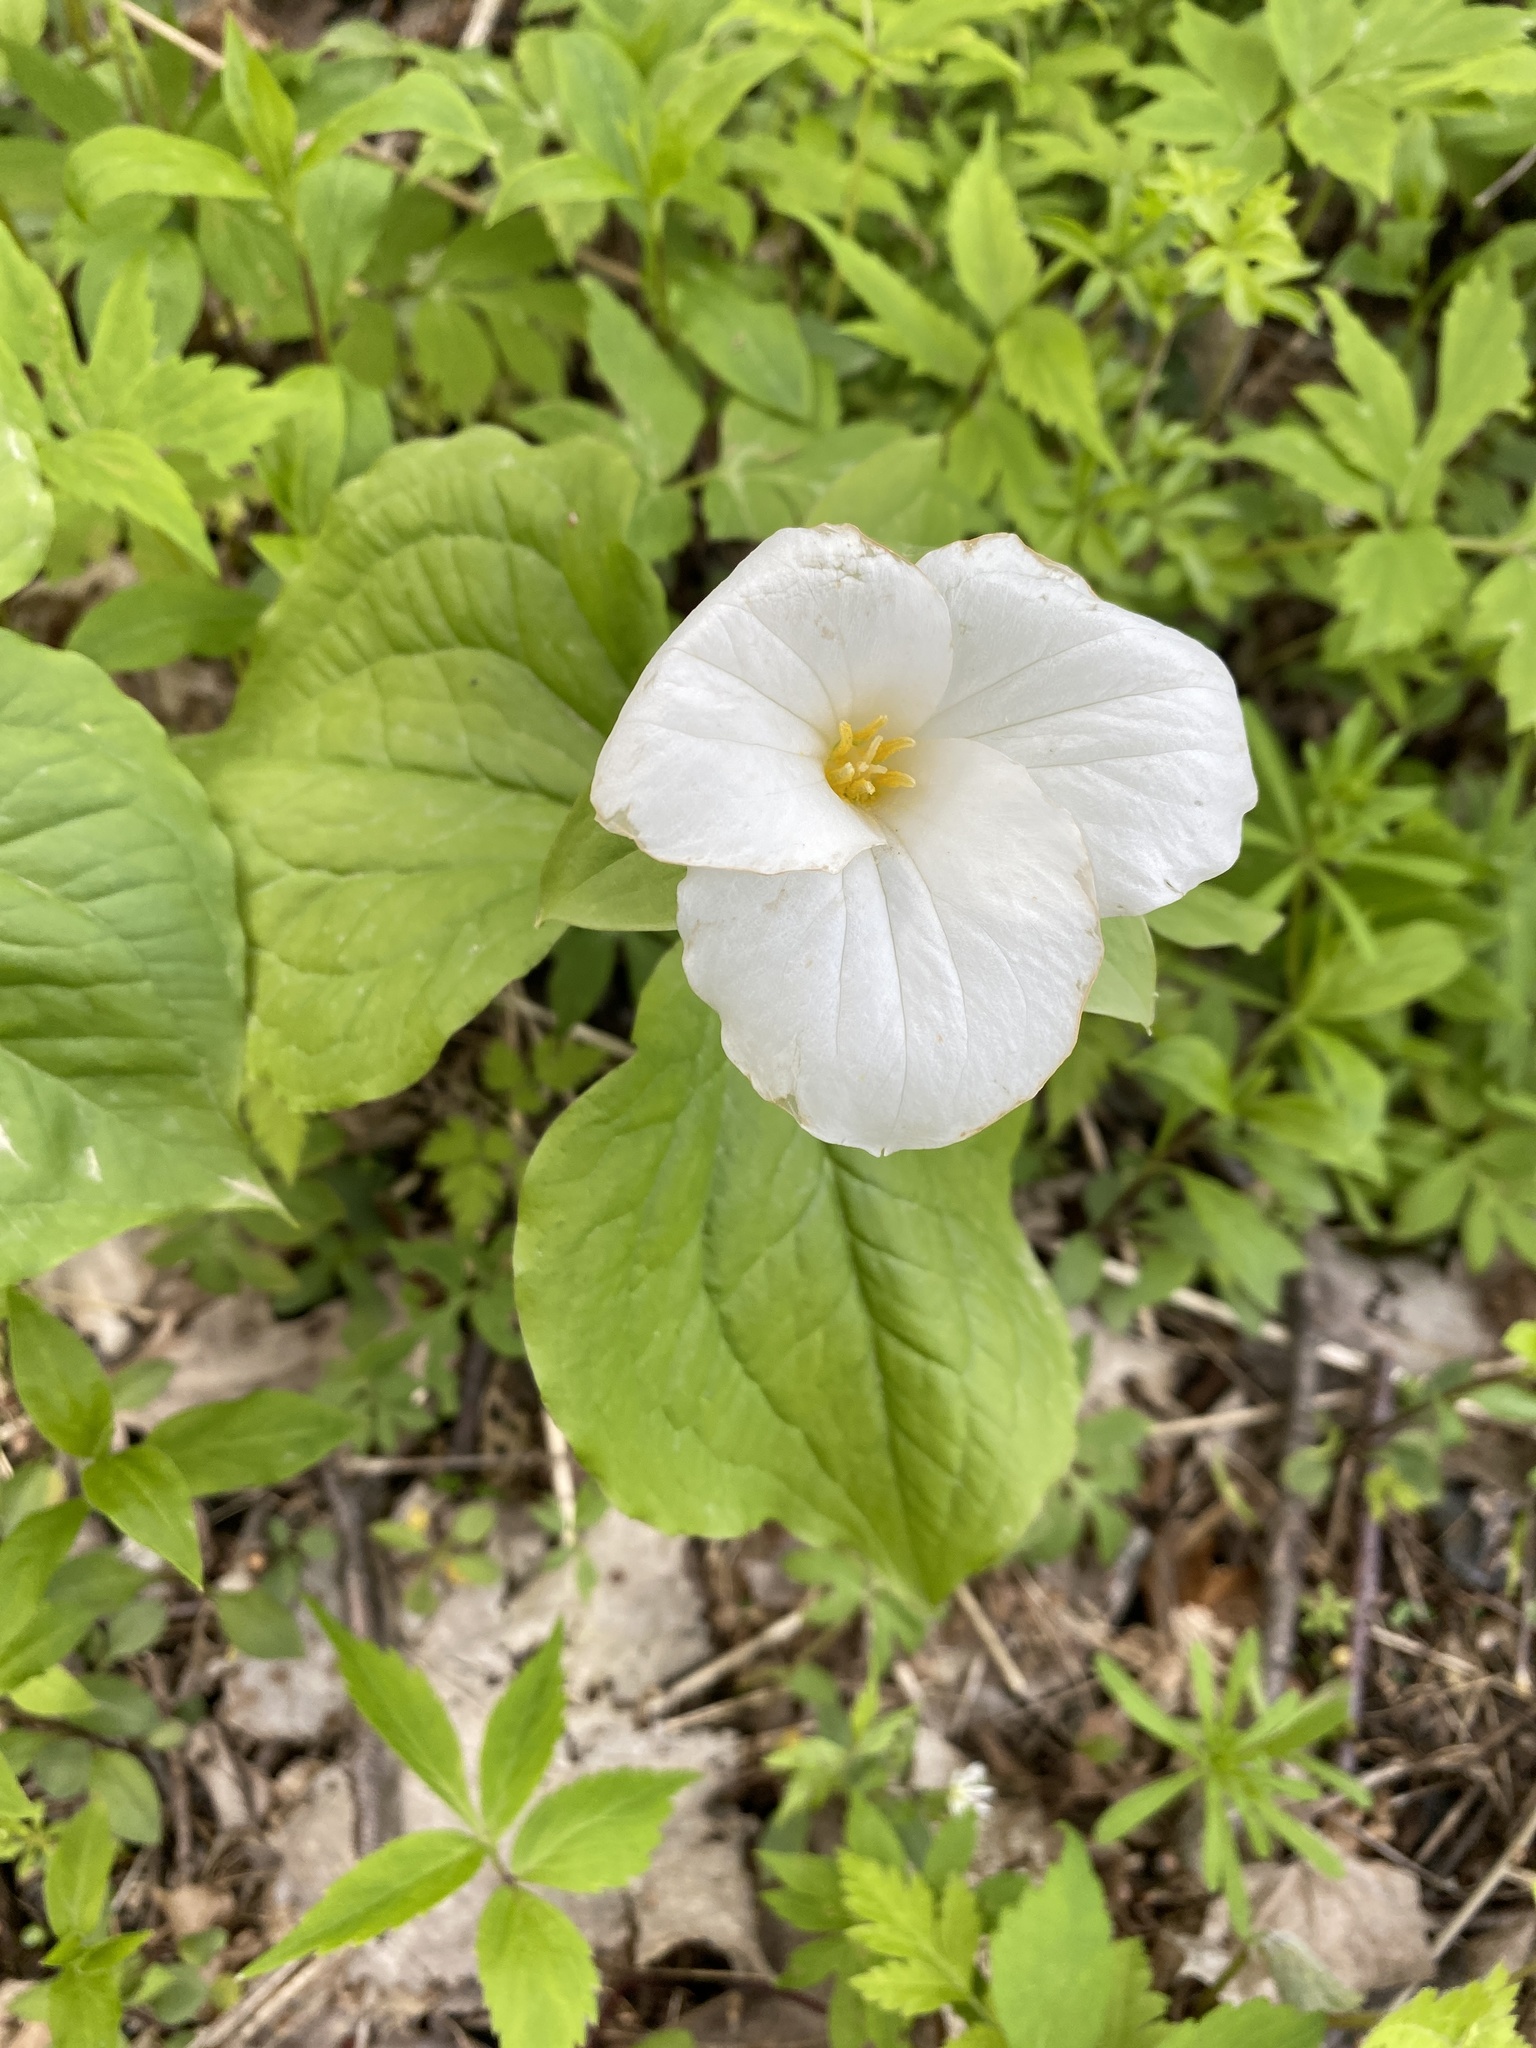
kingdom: Plantae
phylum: Tracheophyta
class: Liliopsida
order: Liliales
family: Melanthiaceae
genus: Trillium
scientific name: Trillium grandiflorum
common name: Great white trillium
